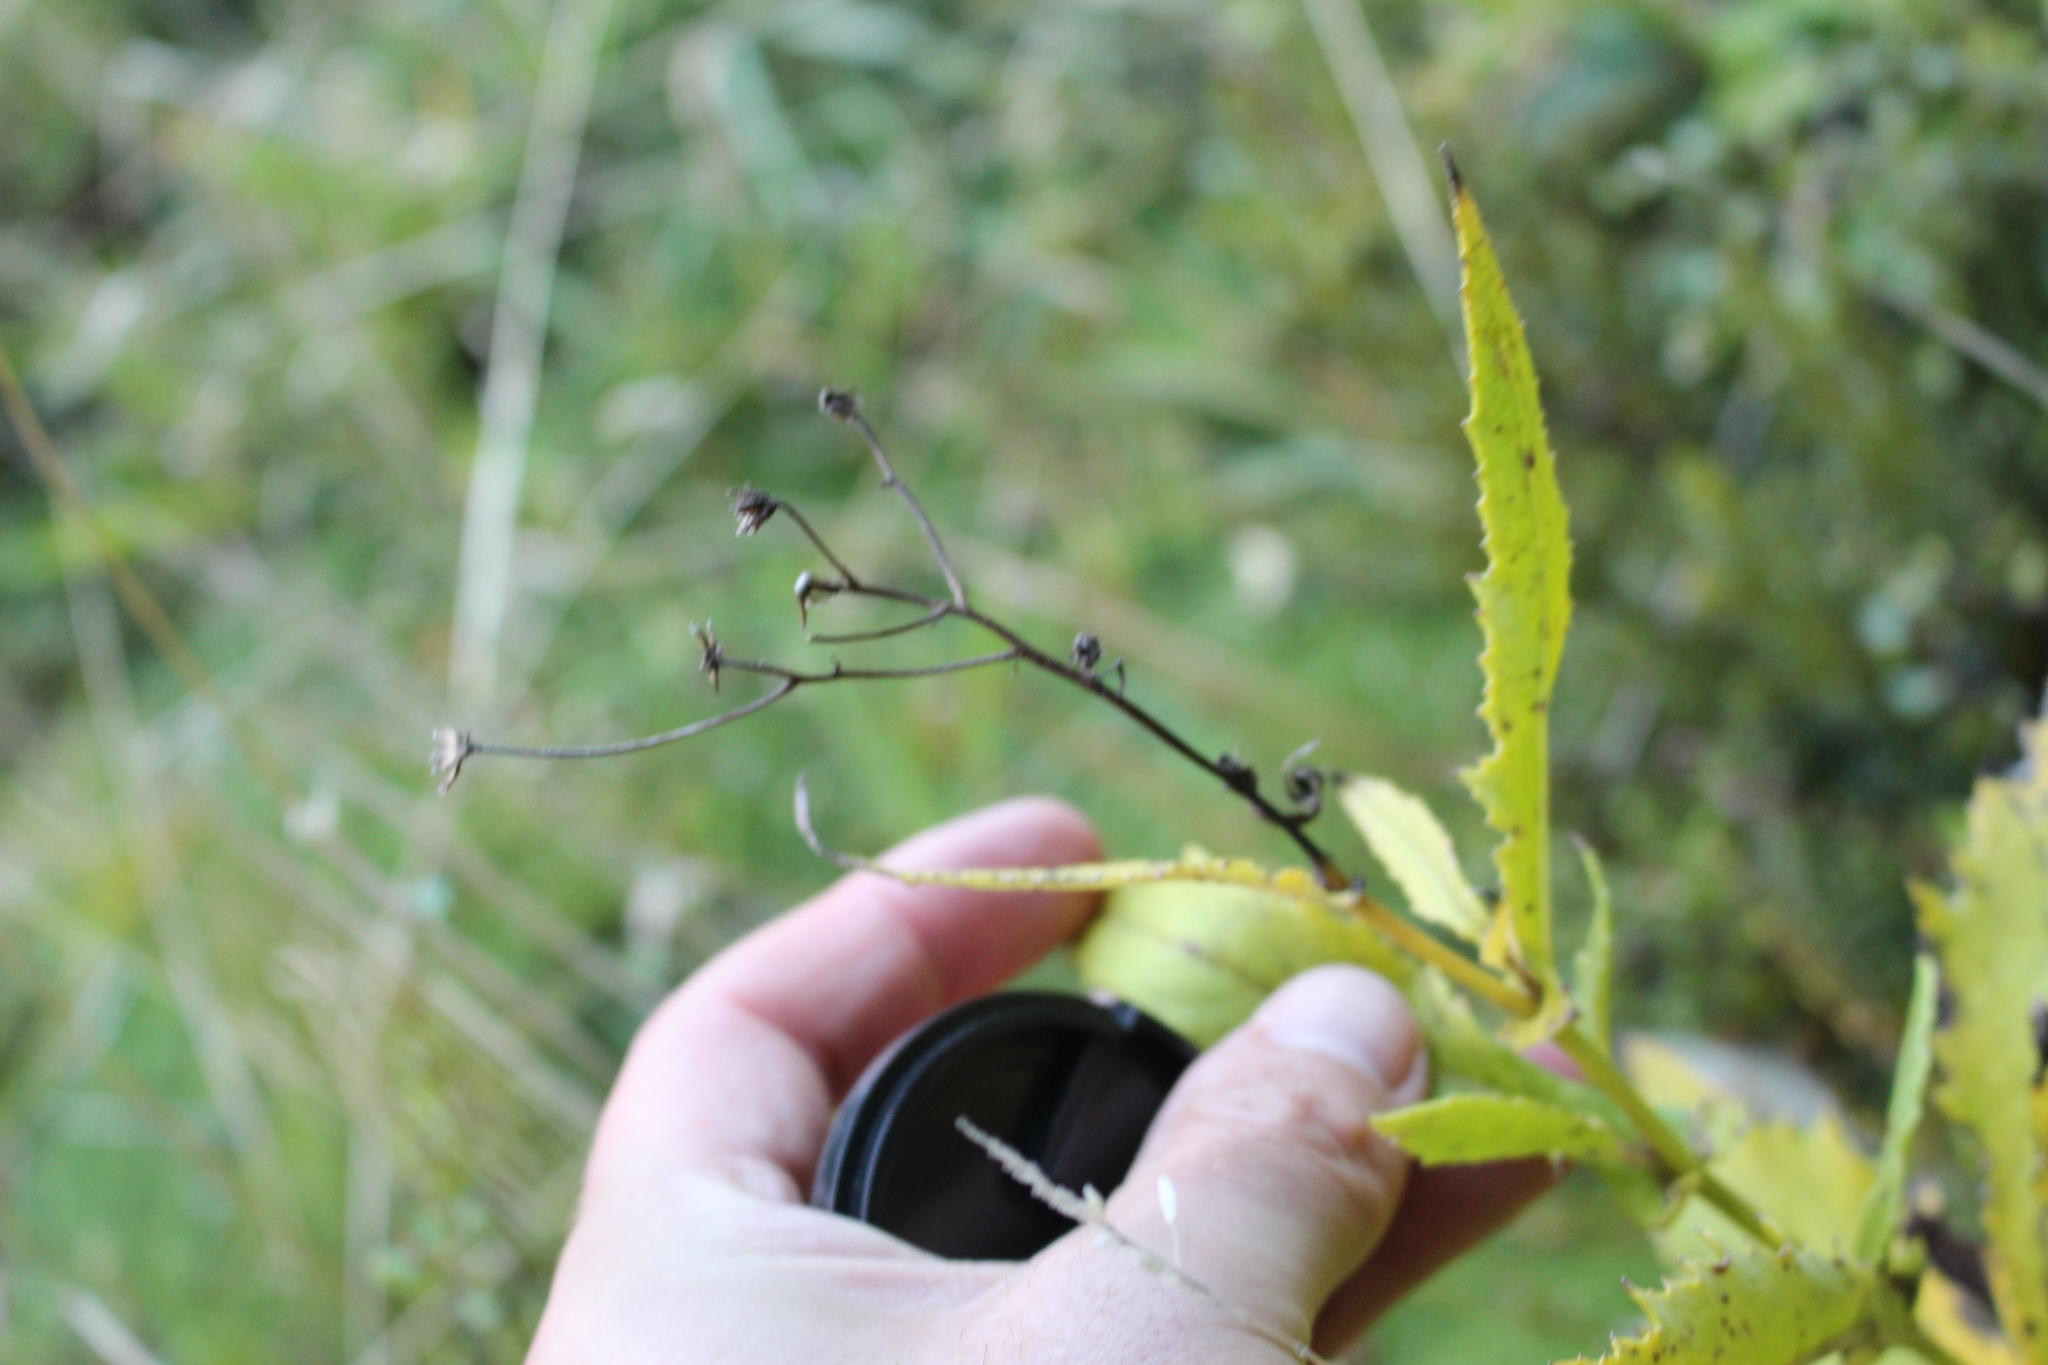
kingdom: Plantae
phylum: Tracheophyta
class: Magnoliopsida
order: Asterales
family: Asteraceae
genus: Senecio
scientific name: Senecio rufiglandulosus
